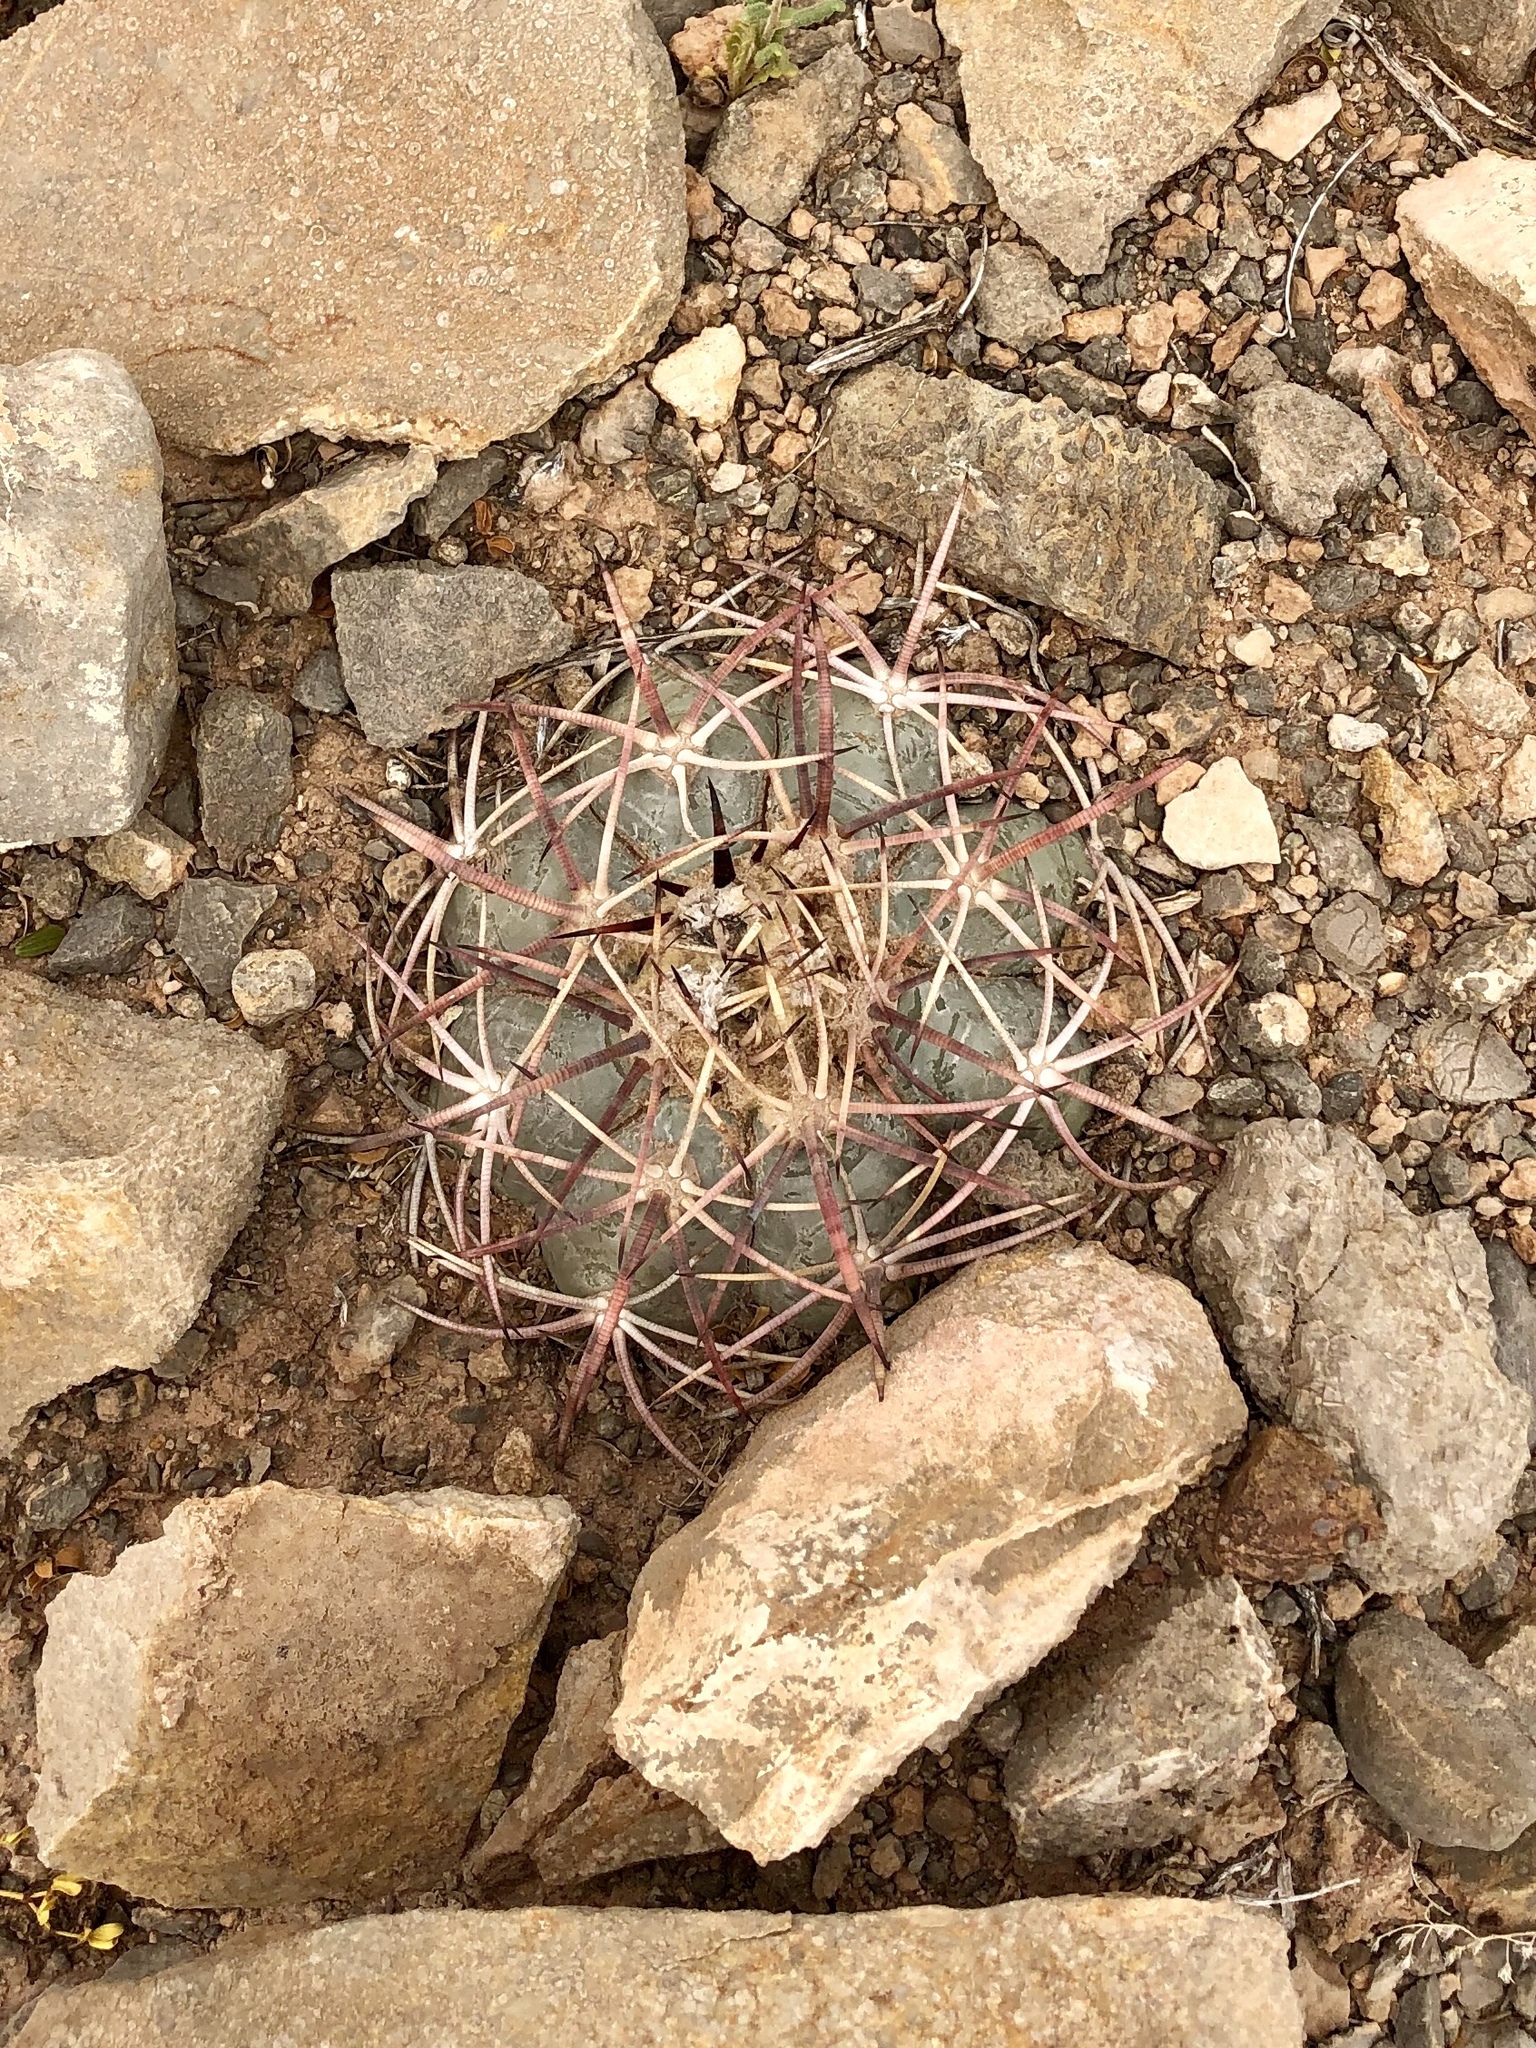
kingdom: Plantae
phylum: Tracheophyta
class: Magnoliopsida
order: Caryophyllales
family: Cactaceae
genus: Echinocactus
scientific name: Echinocactus horizonthalonius
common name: Devilshead
